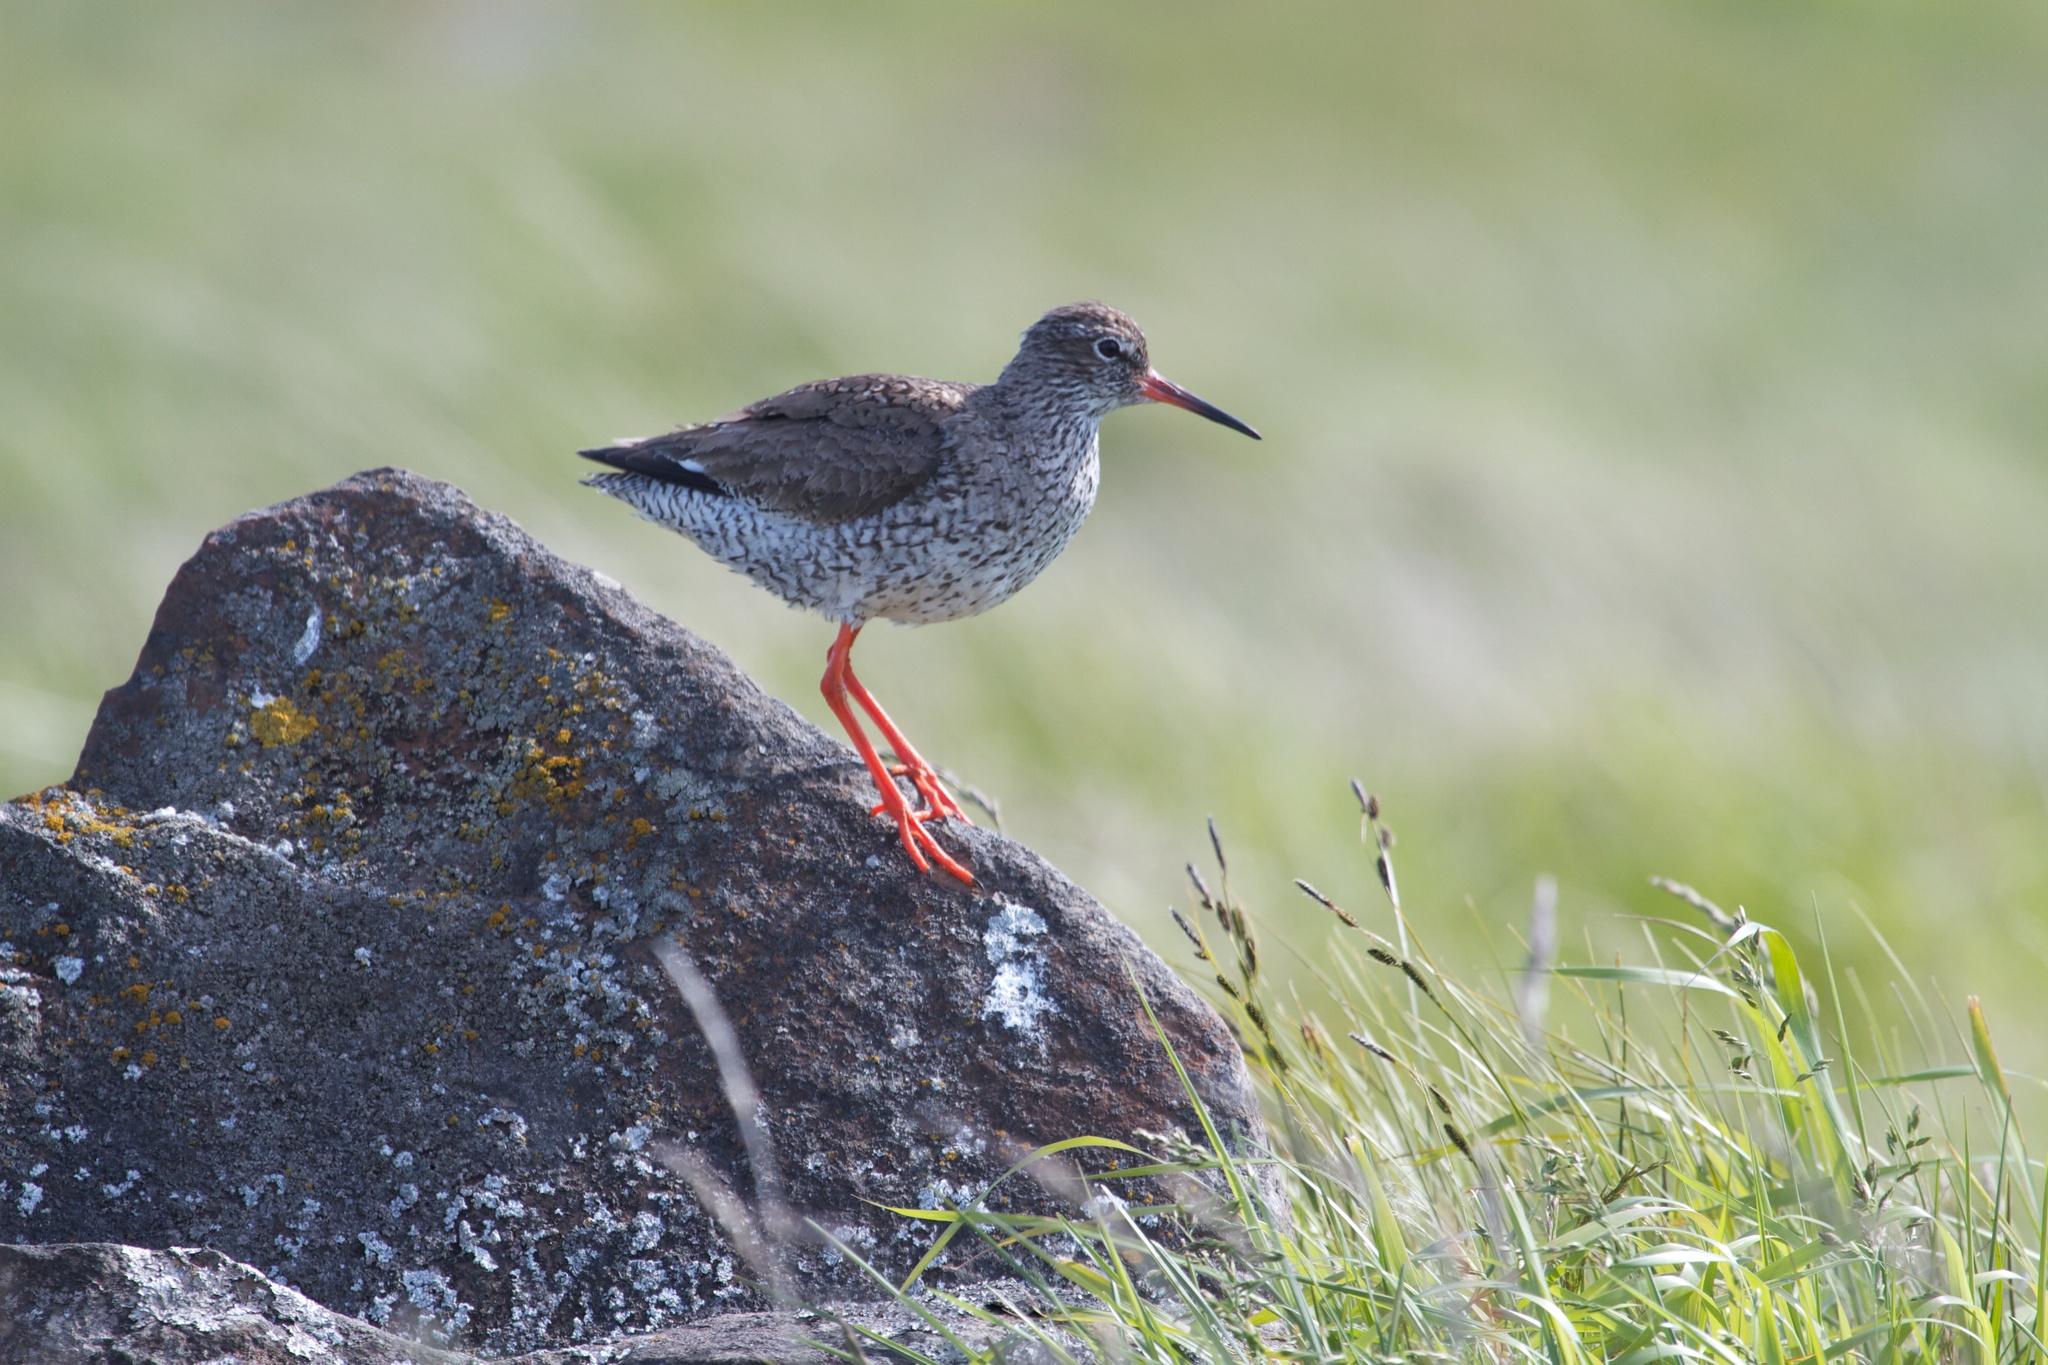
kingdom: Animalia
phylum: Chordata
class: Aves
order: Charadriiformes
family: Scolopacidae
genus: Tringa
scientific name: Tringa totanus
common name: Common redshank
